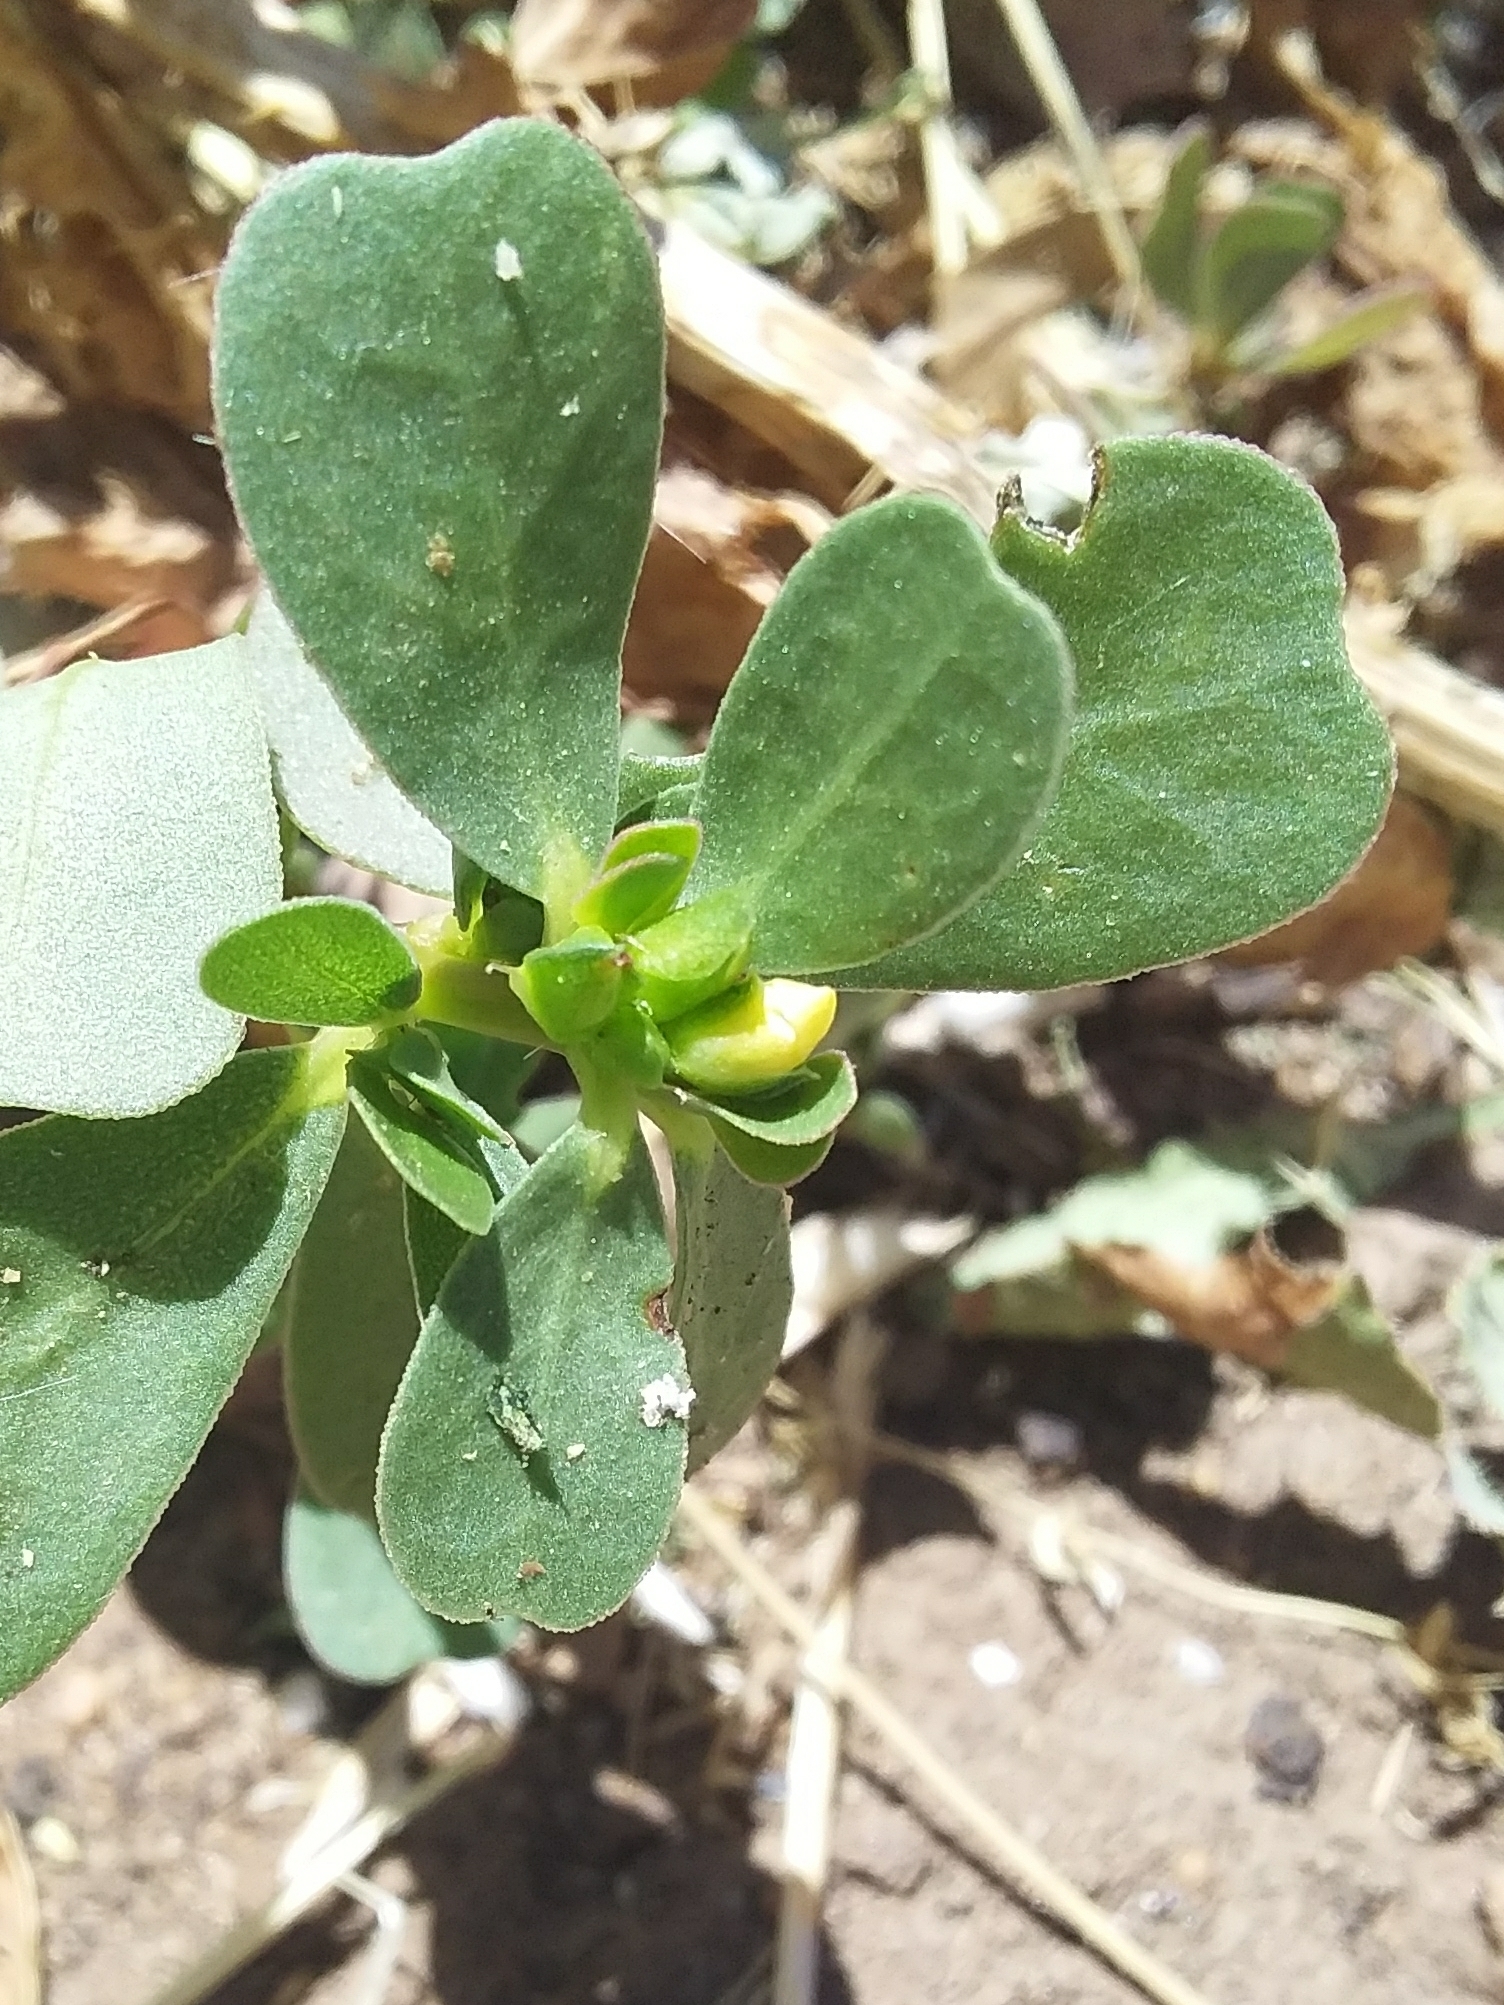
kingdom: Plantae
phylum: Tracheophyta
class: Magnoliopsida
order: Caryophyllales
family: Portulacaceae
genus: Portulaca
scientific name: Portulaca oleracea
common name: Common purslane
